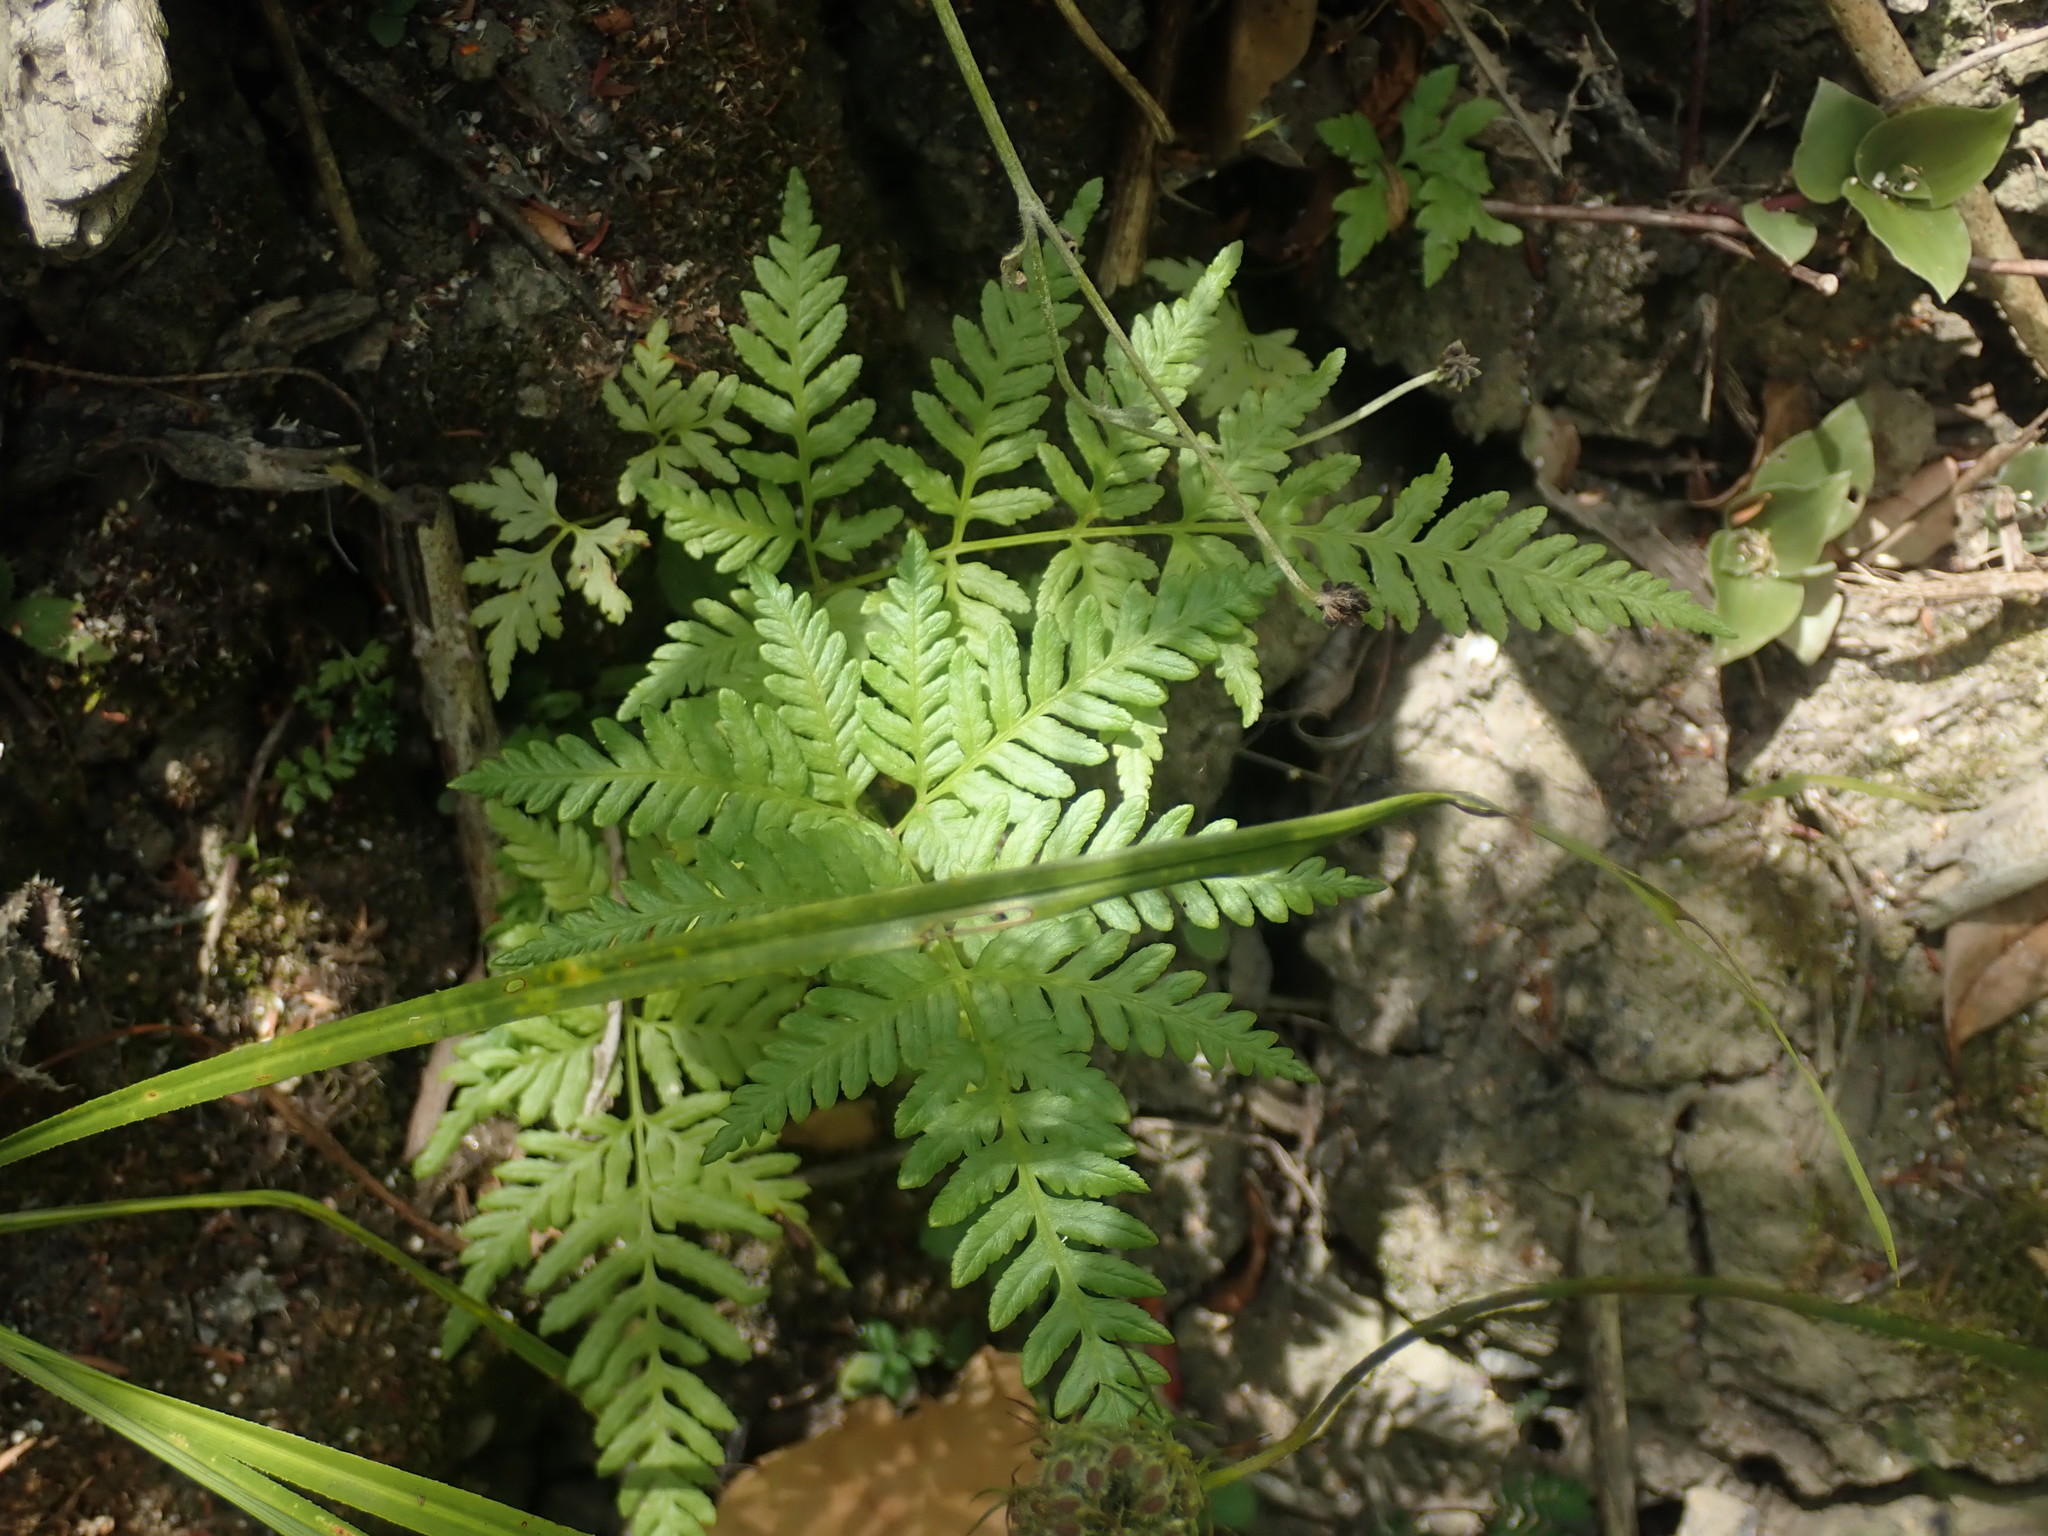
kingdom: Plantae
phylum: Tracheophyta
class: Polypodiopsida
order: Polypodiales
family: Pteridaceae
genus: Pteris
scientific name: Pteris tremula
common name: Australian brake
